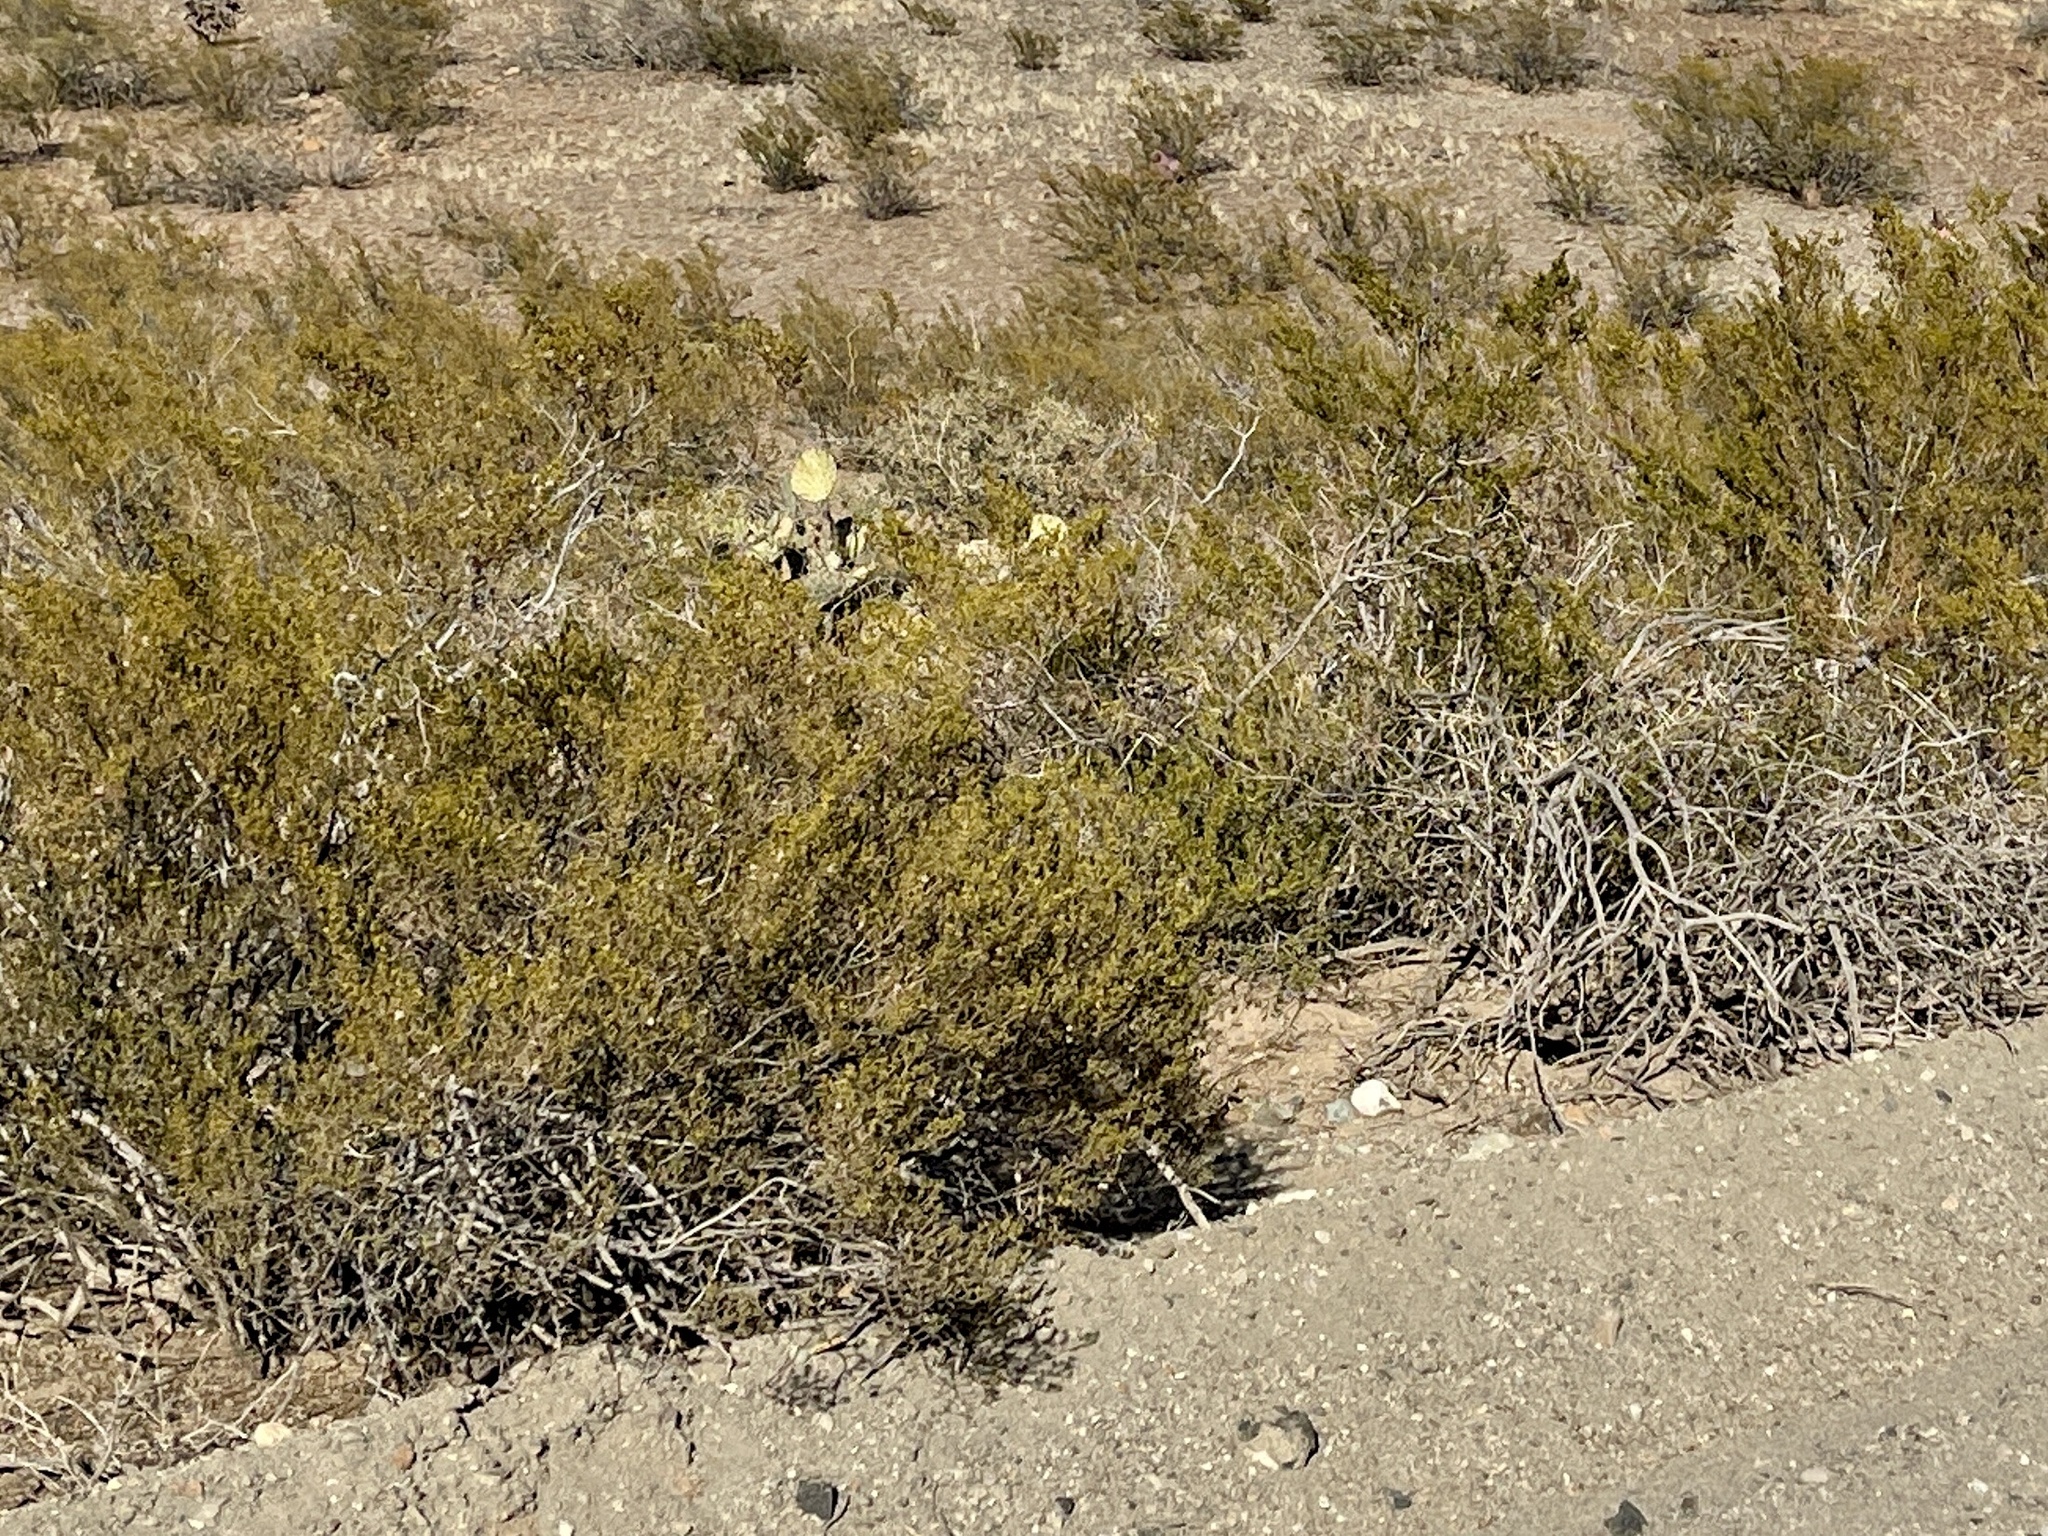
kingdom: Plantae
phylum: Tracheophyta
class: Magnoliopsida
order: Zygophyllales
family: Zygophyllaceae
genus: Larrea
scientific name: Larrea tridentata
